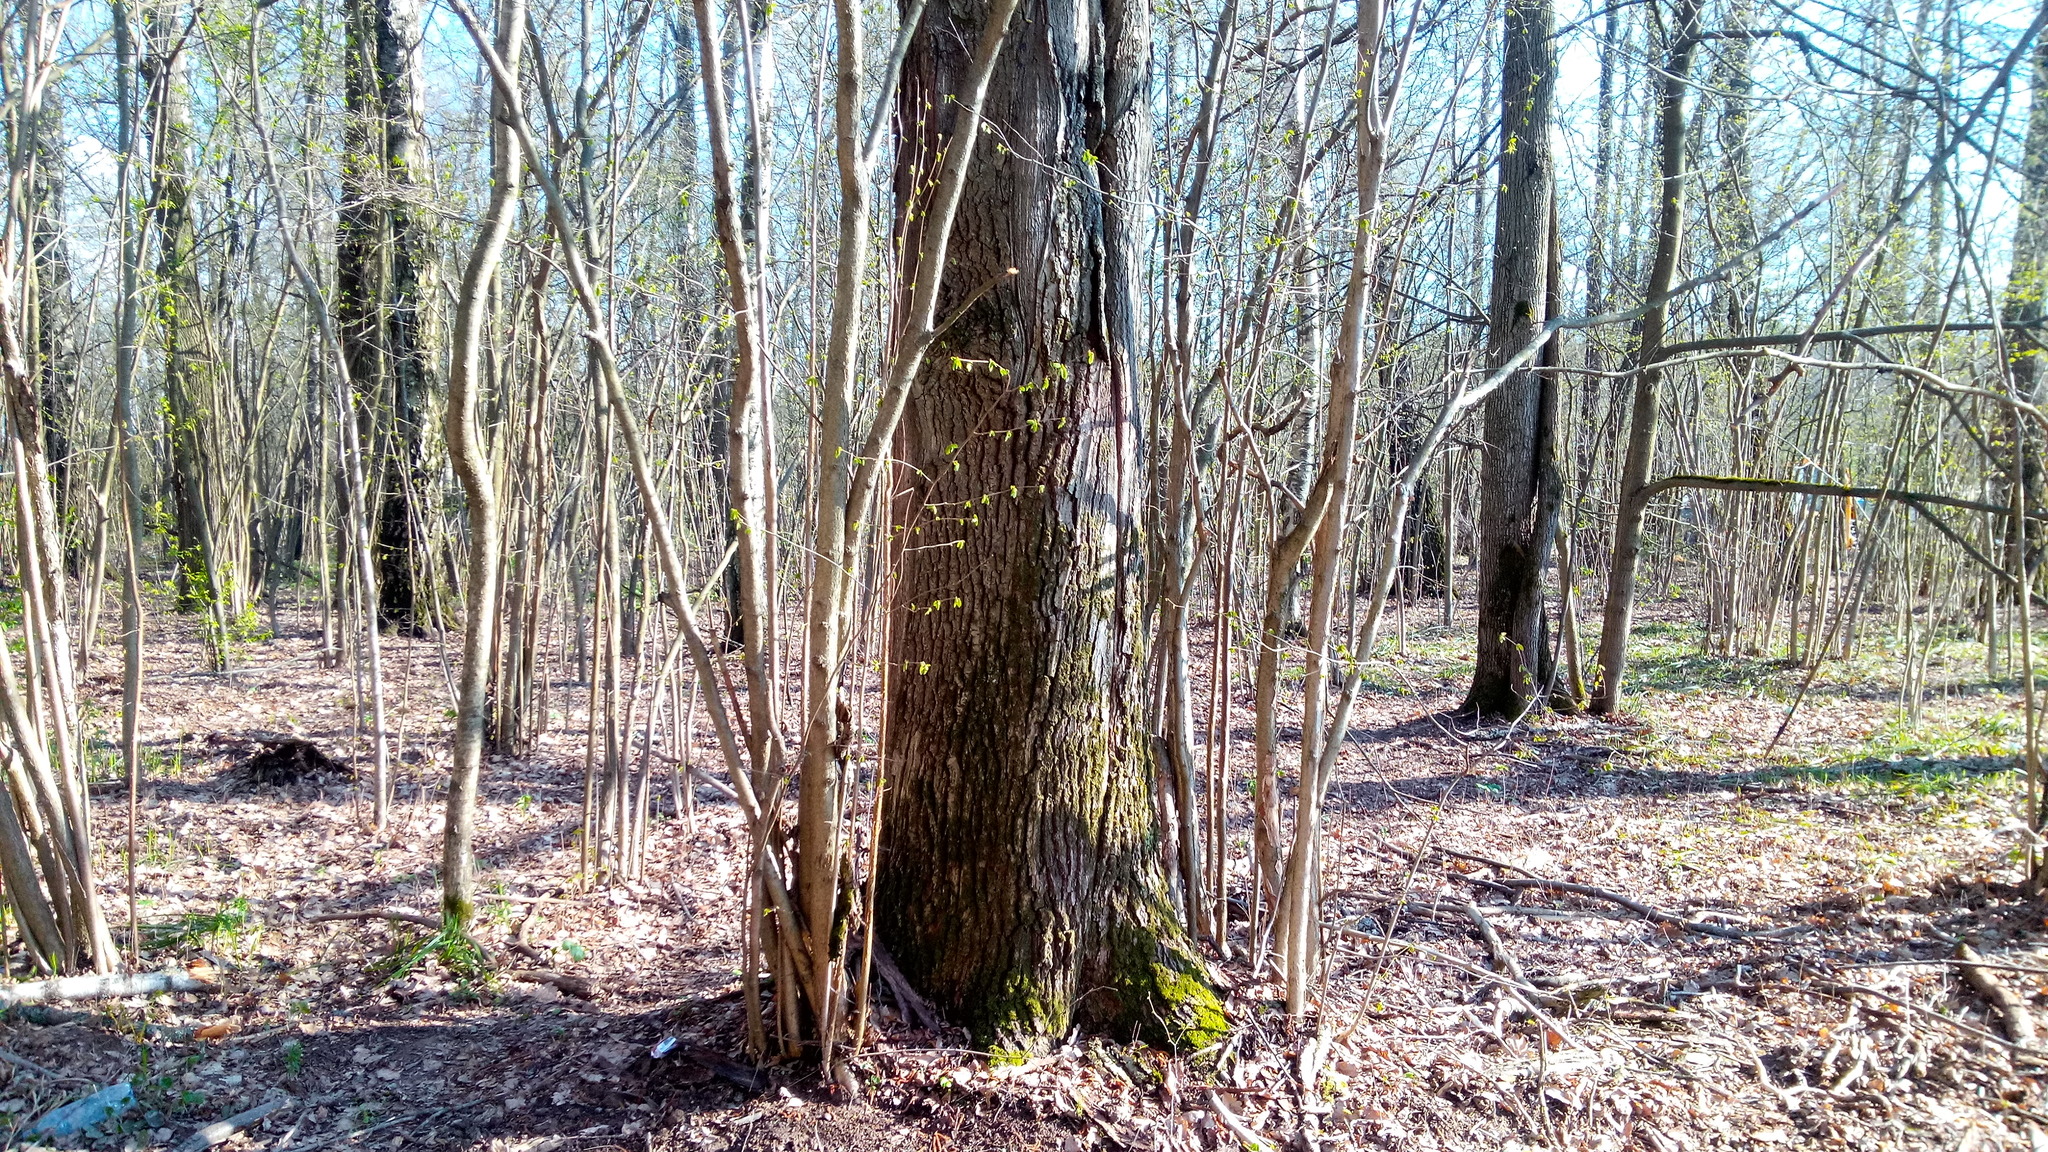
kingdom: Plantae
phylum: Tracheophyta
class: Magnoliopsida
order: Fagales
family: Fagaceae
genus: Quercus
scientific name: Quercus robur
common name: Pedunculate oak
